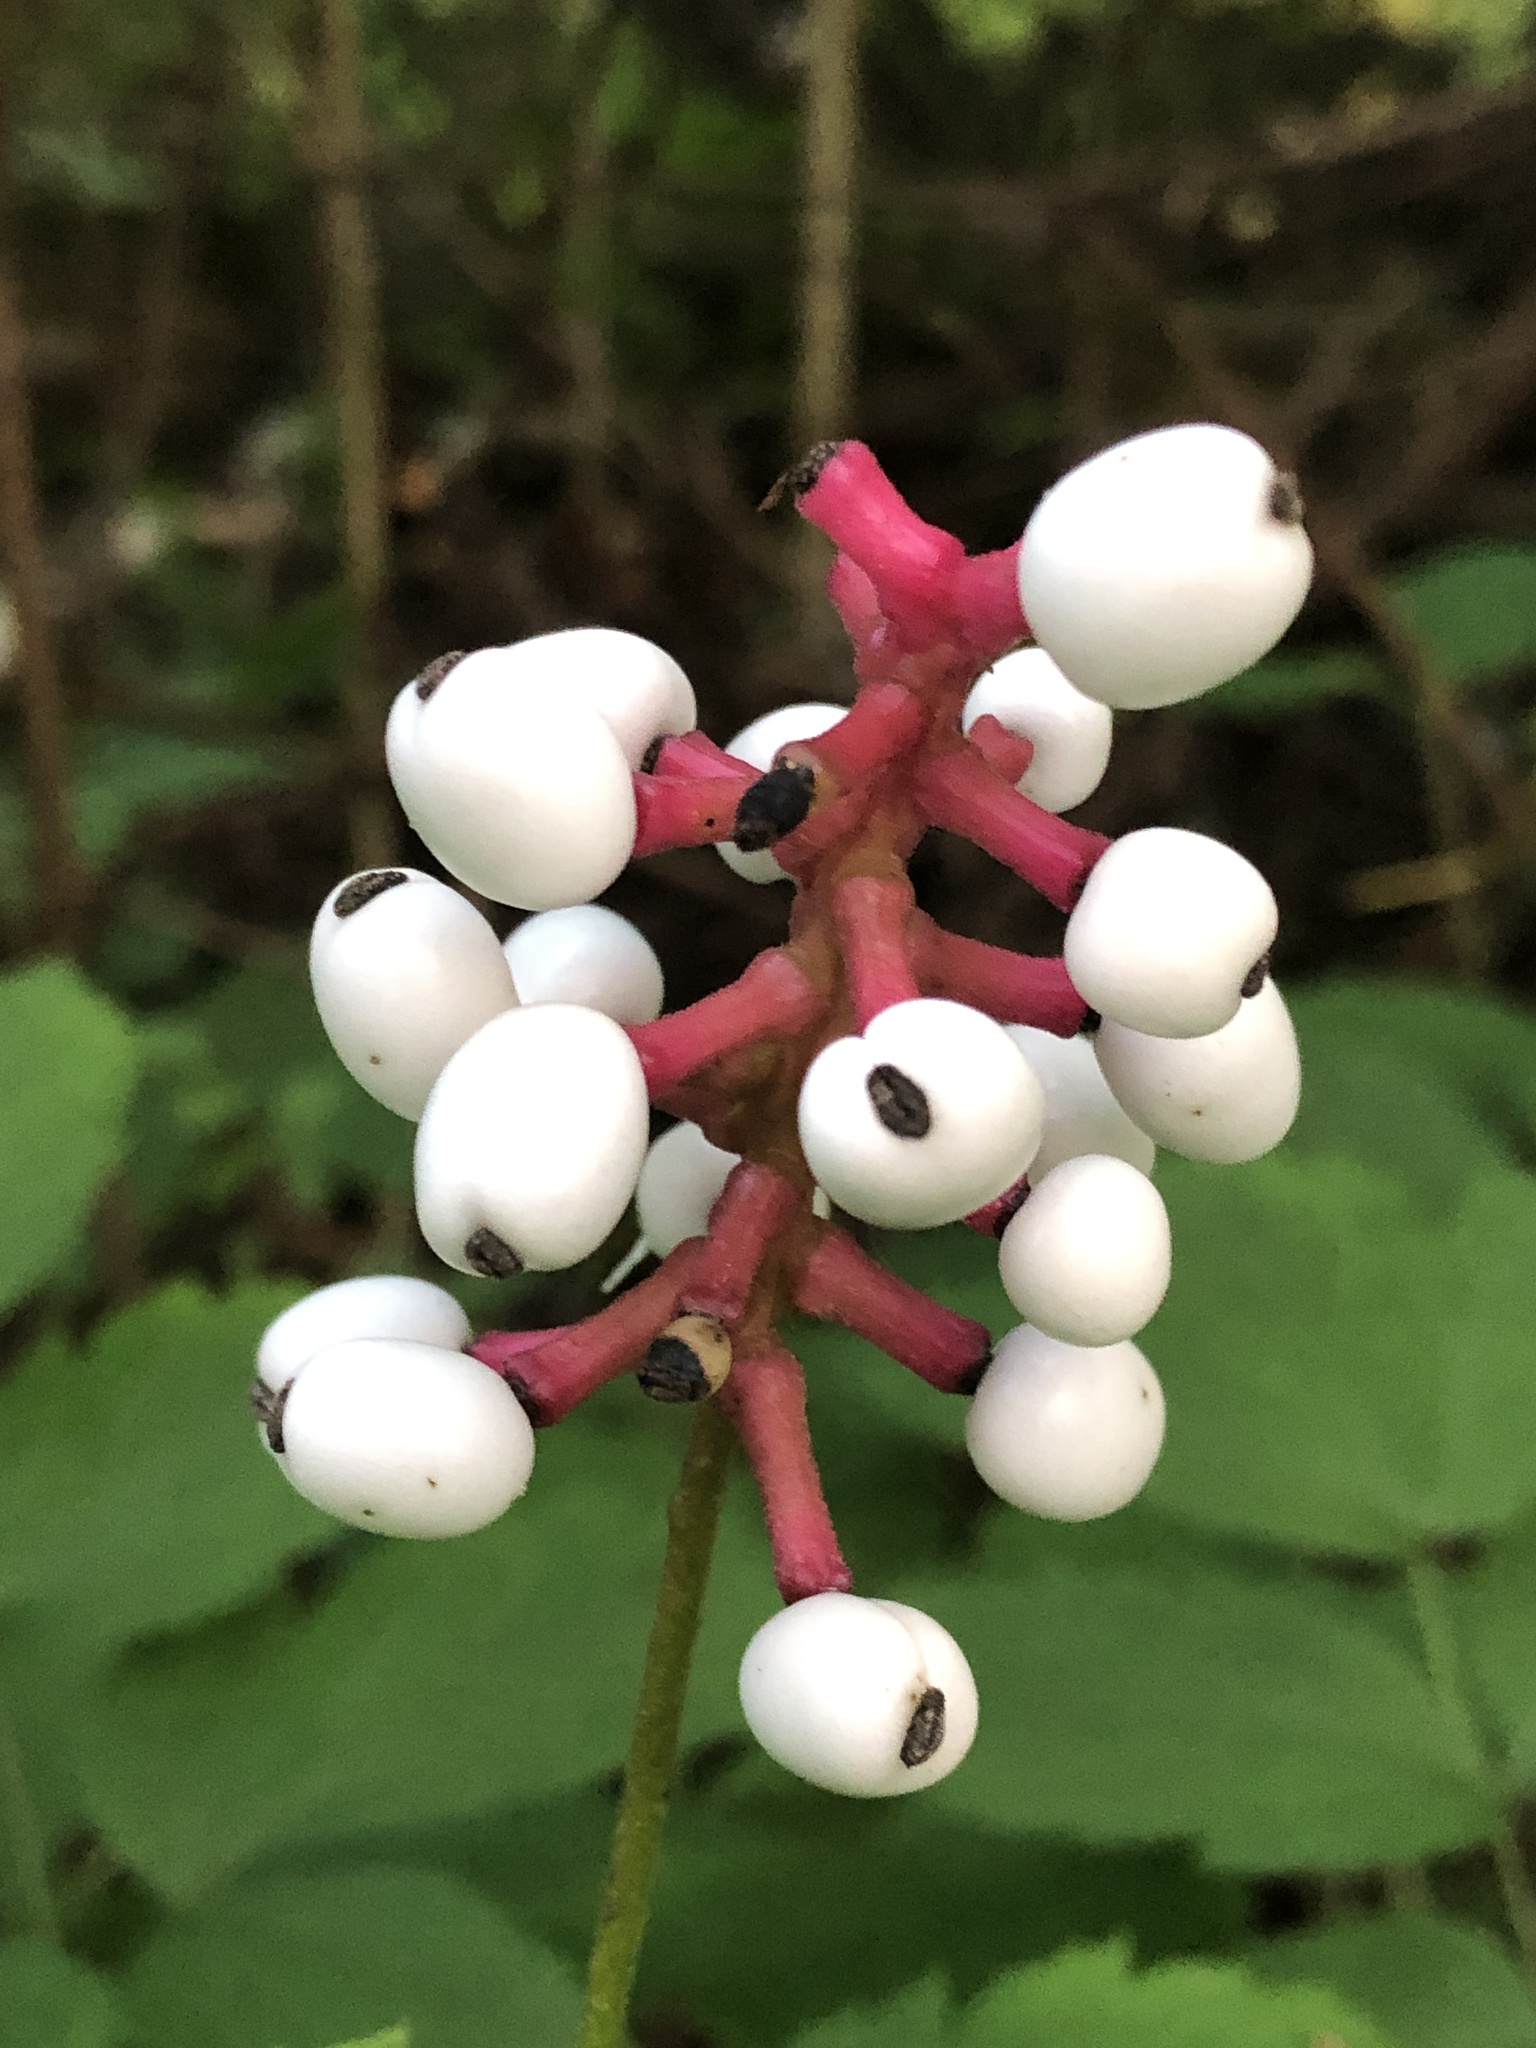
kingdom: Plantae
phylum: Tracheophyta
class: Magnoliopsida
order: Ranunculales
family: Ranunculaceae
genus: Actaea
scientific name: Actaea pachypoda
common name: Doll's-eyes
